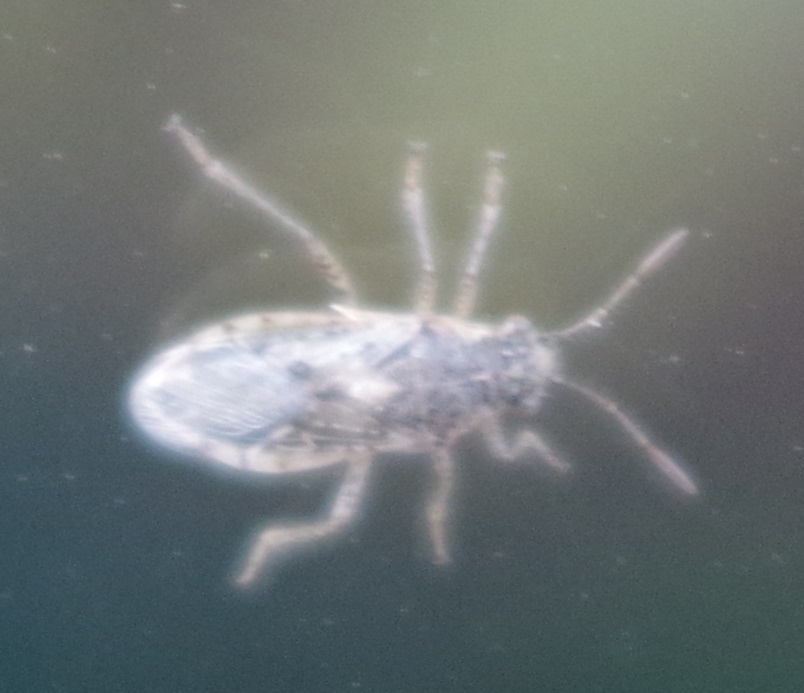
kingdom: Animalia
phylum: Arthropoda
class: Insecta
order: Hemiptera
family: Rhopalidae
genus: Brachycarenus
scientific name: Brachycarenus tigrinus
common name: Scentless plant bug
